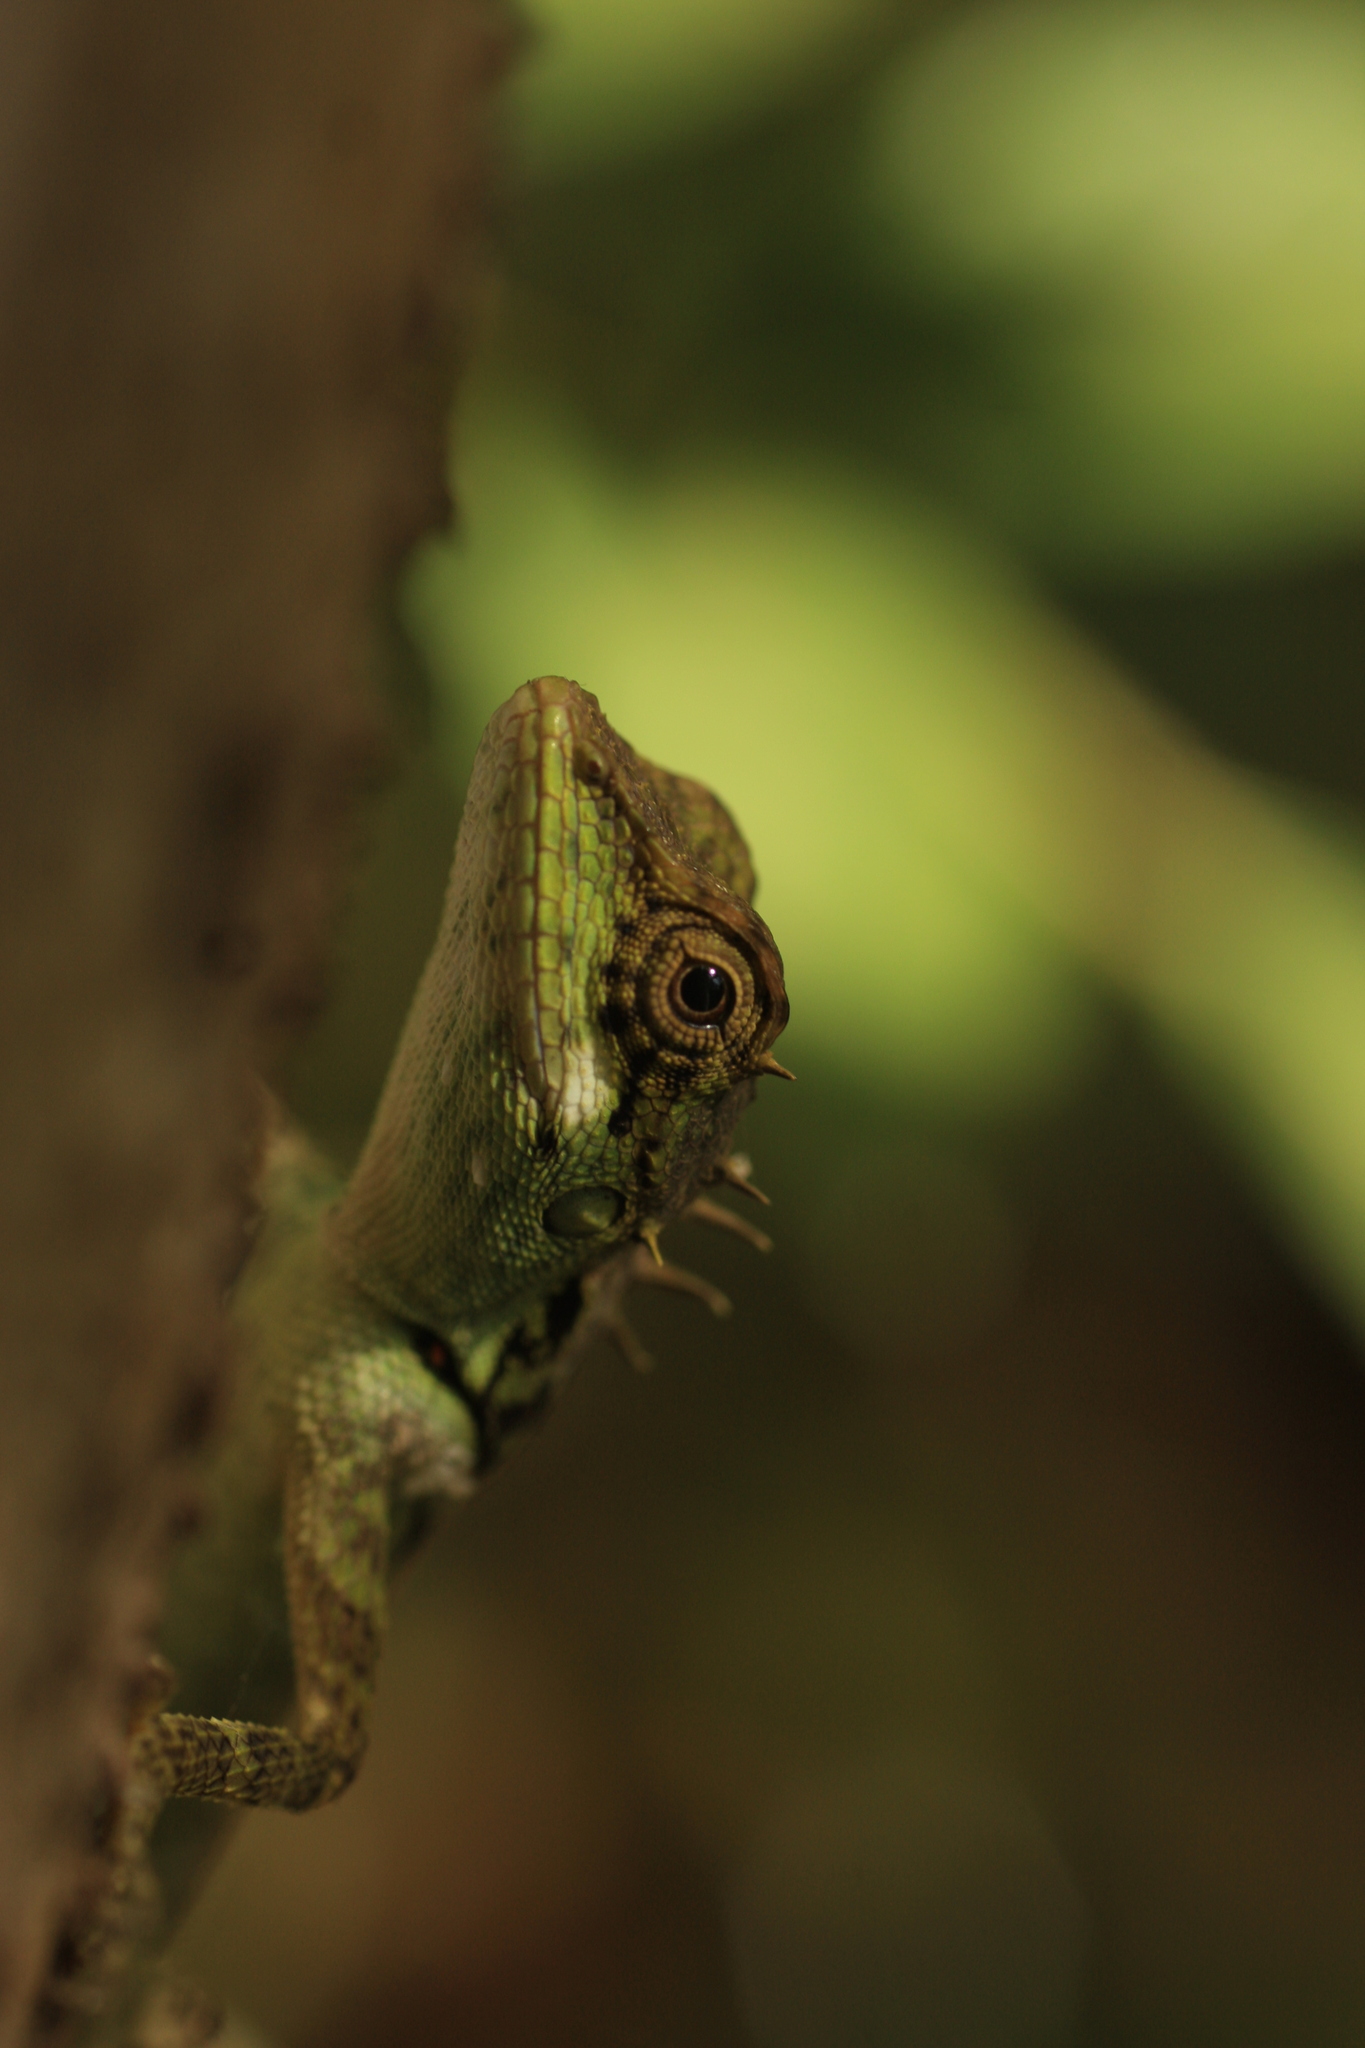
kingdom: Animalia
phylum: Chordata
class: Squamata
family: Agamidae
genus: Monilesaurus
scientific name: Monilesaurus ellioti
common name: Elliot's forest lizard
